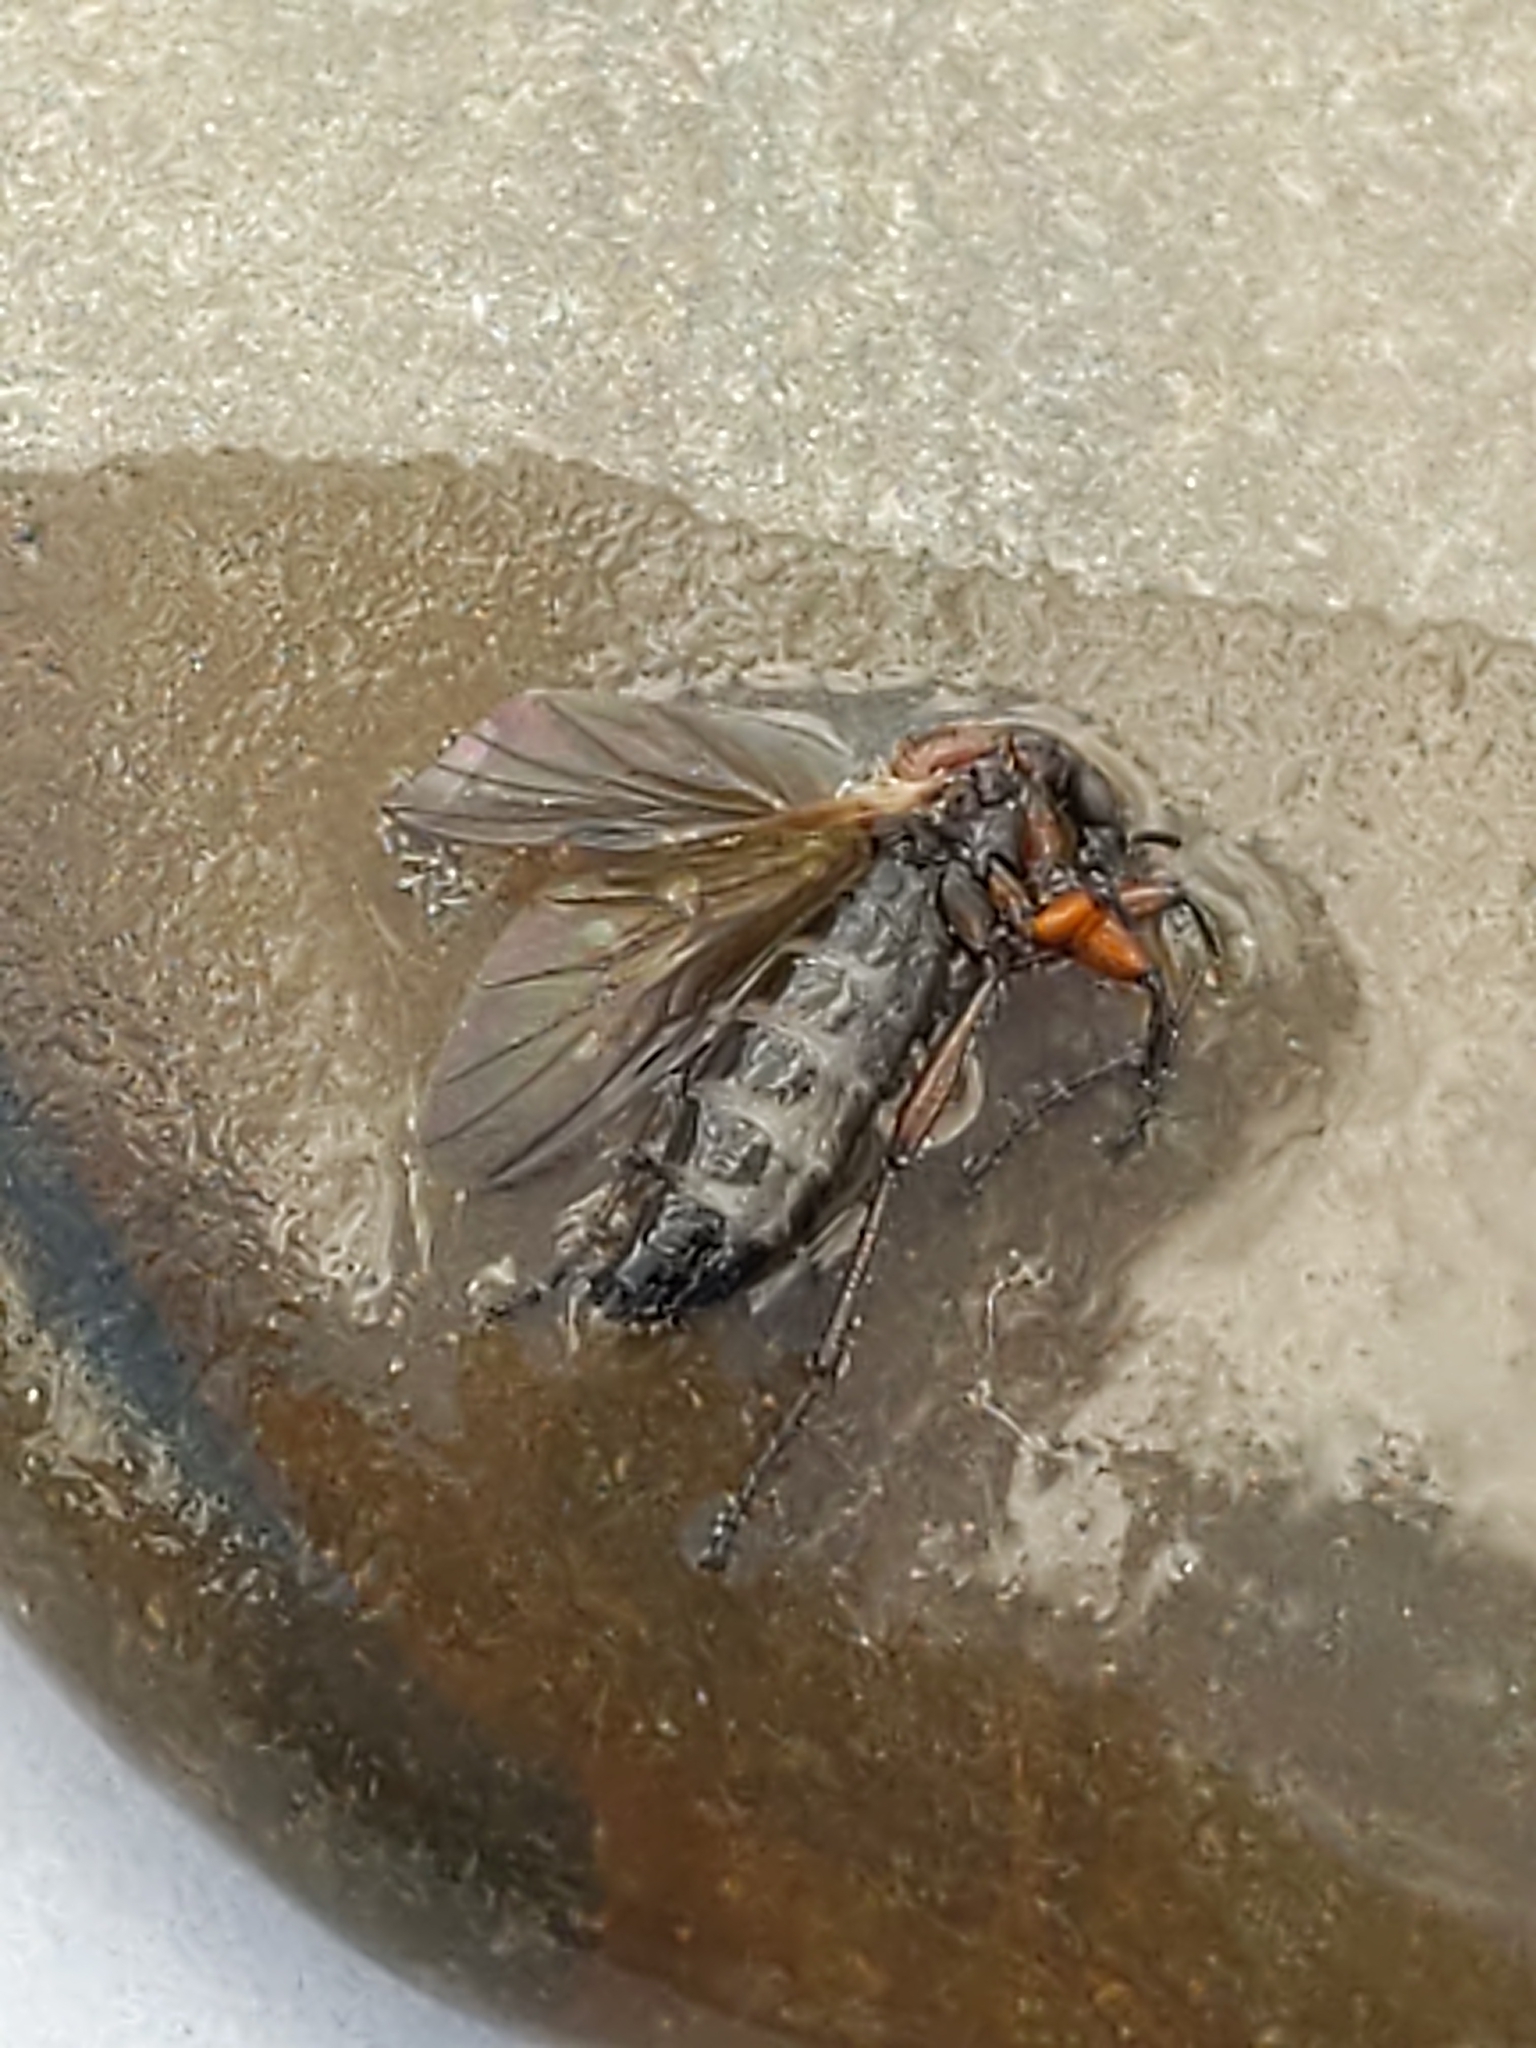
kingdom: Animalia
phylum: Arthropoda
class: Insecta
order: Diptera
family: Bibionidae
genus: Bibio
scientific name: Bibio
